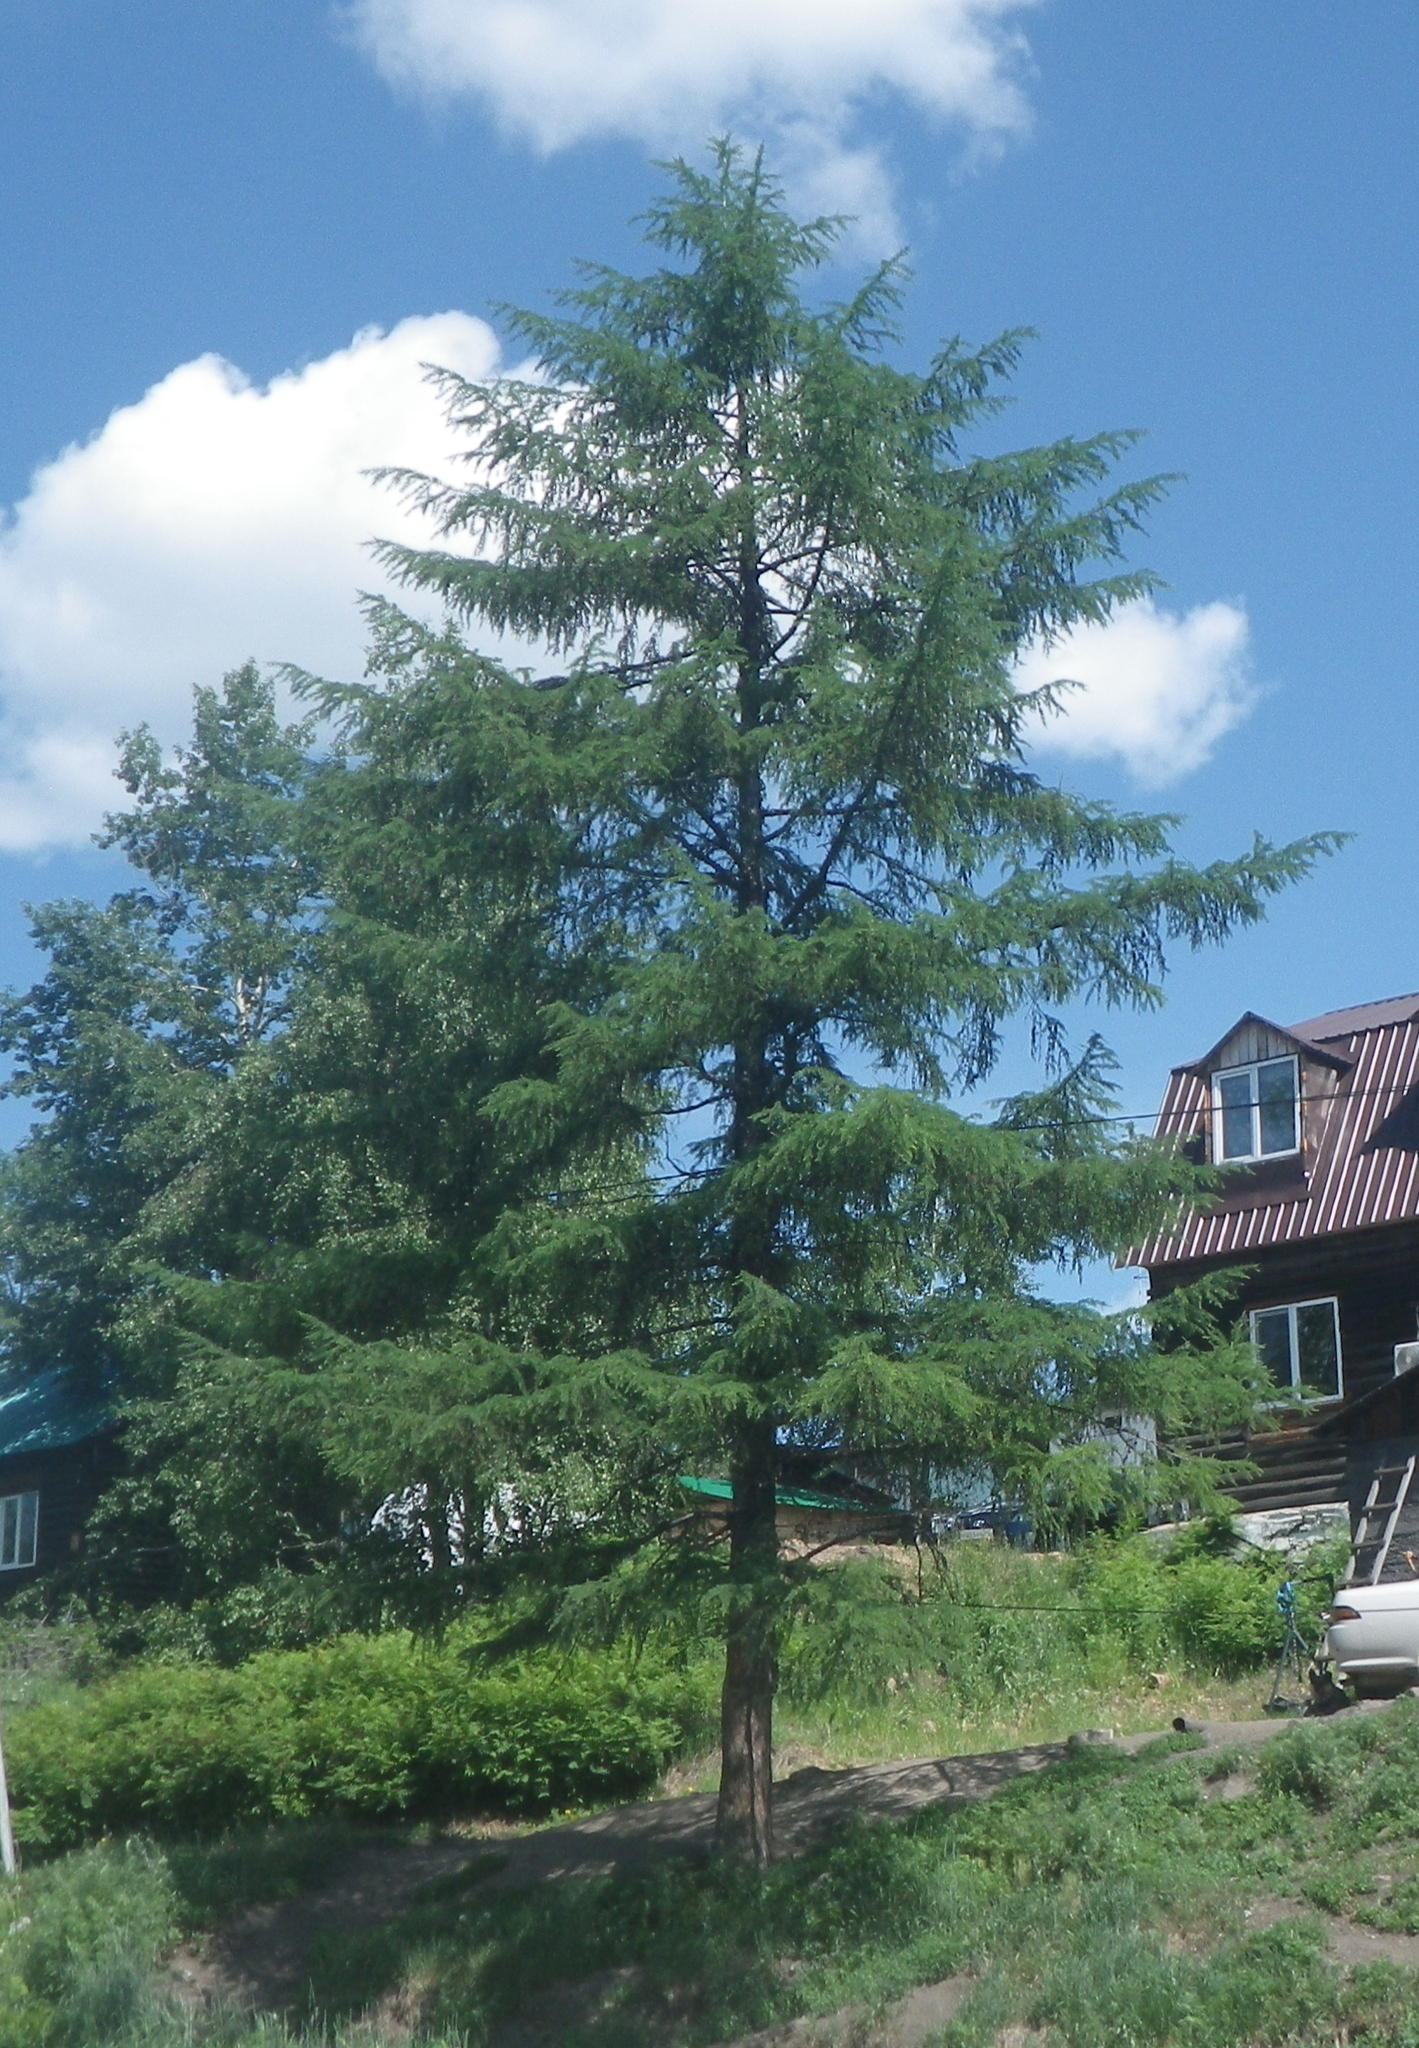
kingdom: Plantae
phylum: Tracheophyta
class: Pinopsida
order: Pinales
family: Pinaceae
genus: Larix
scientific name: Larix gmelinii
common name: Dahurian larch
